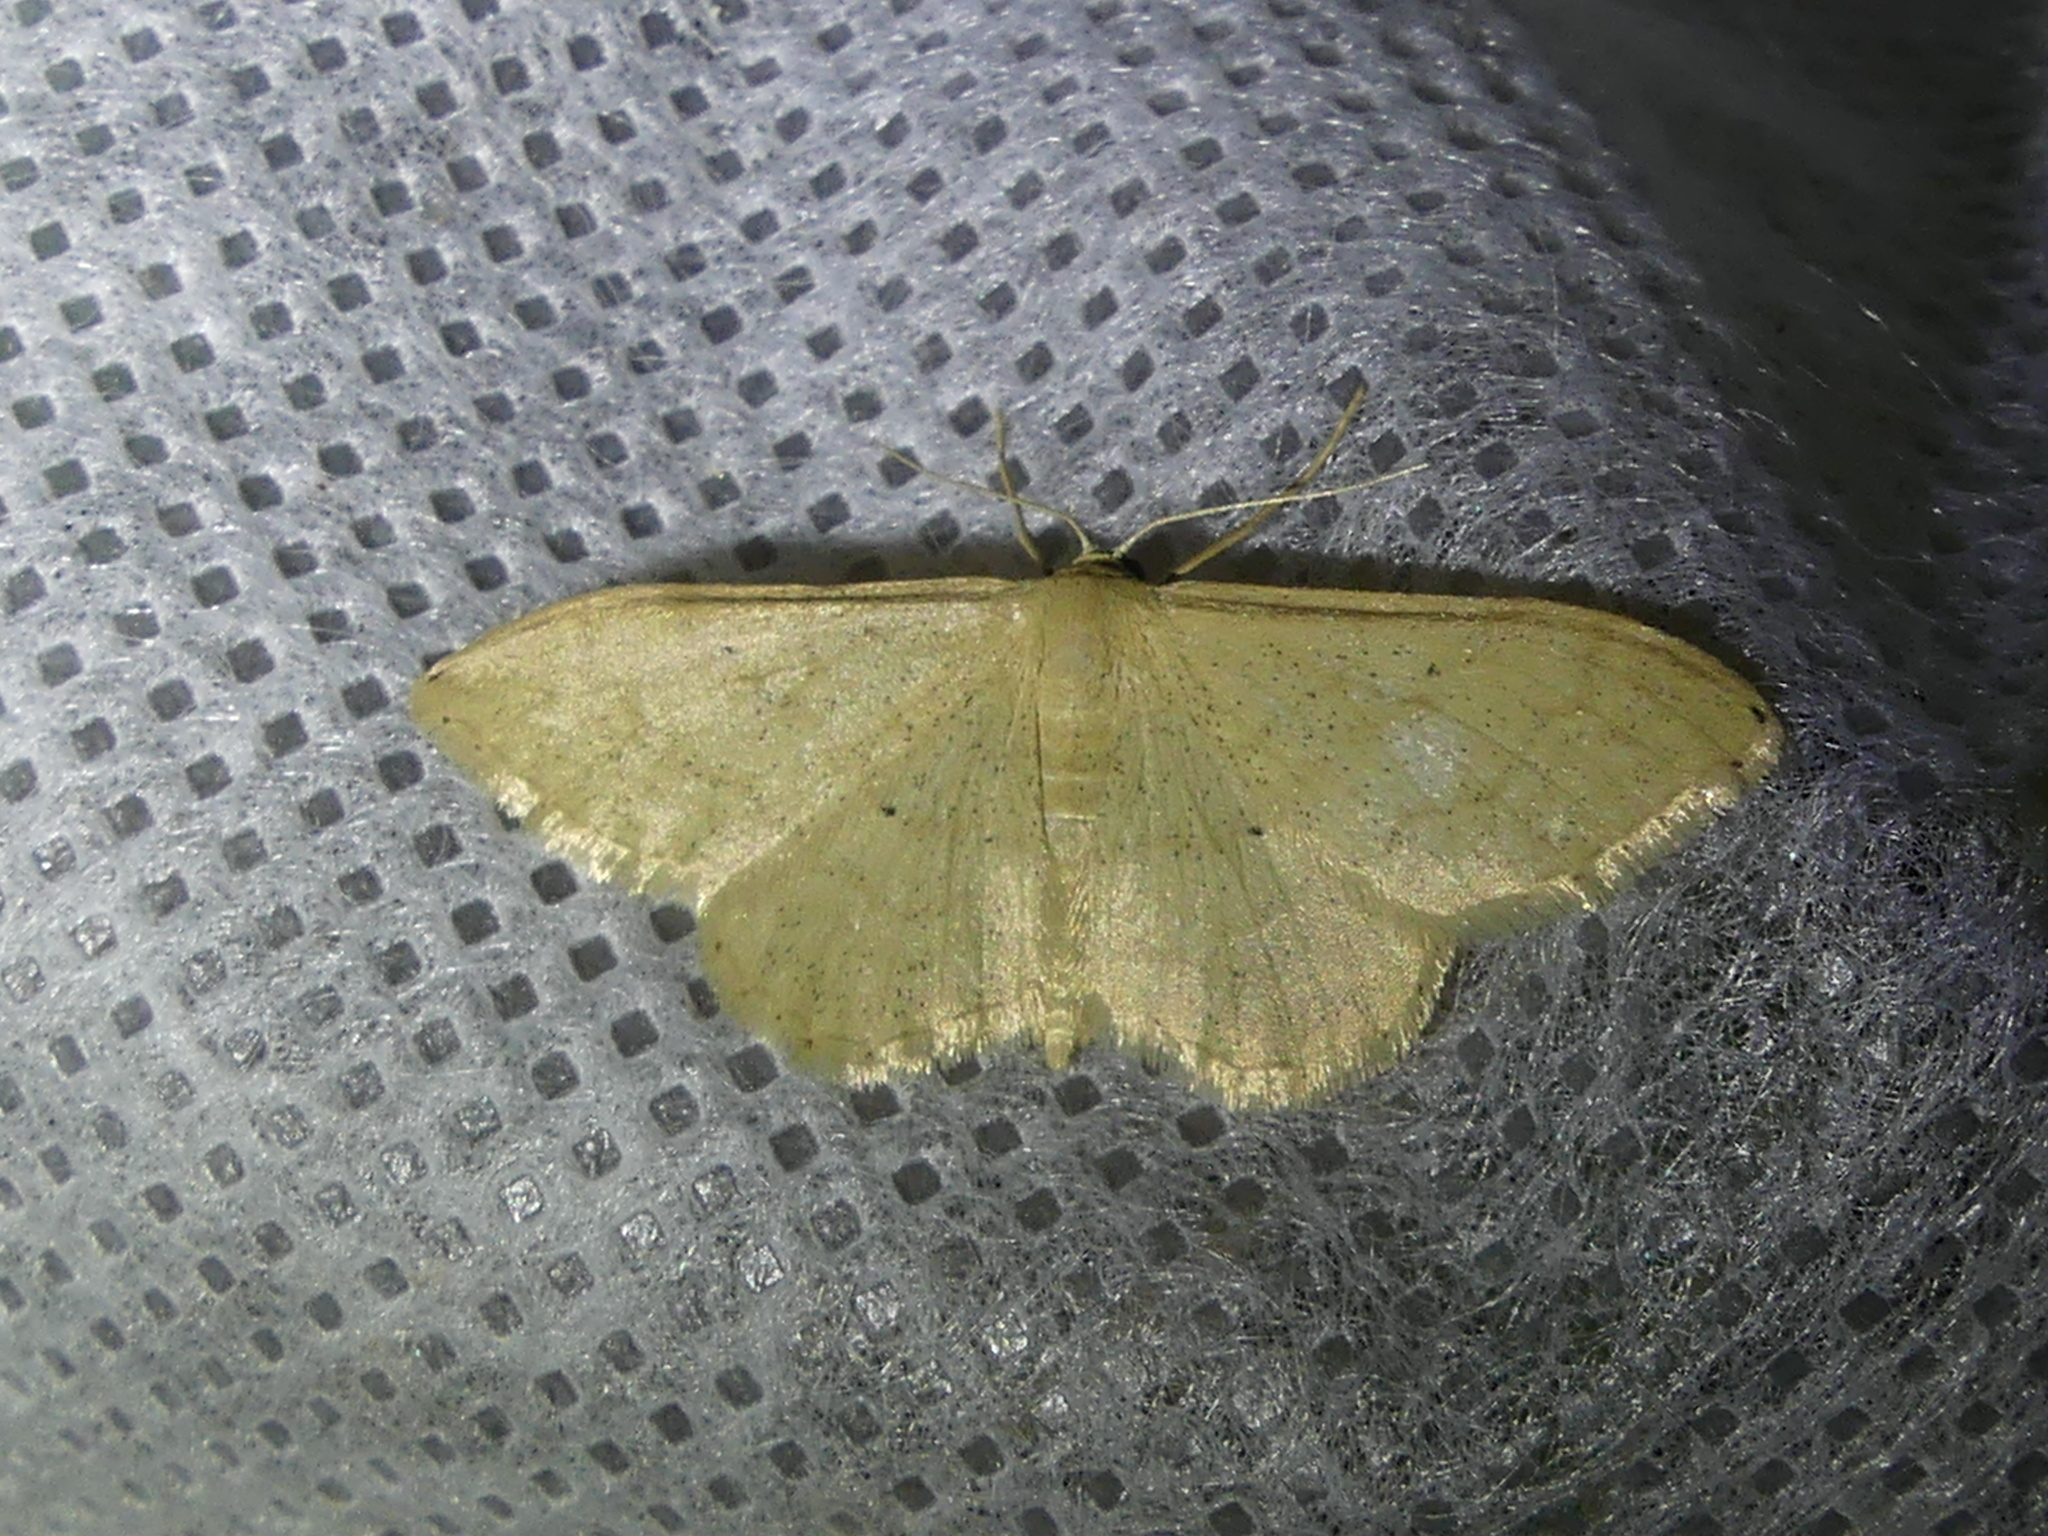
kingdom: Animalia
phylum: Arthropoda
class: Insecta
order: Lepidoptera
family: Geometridae
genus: Idaea
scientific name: Idaea maritimaria
